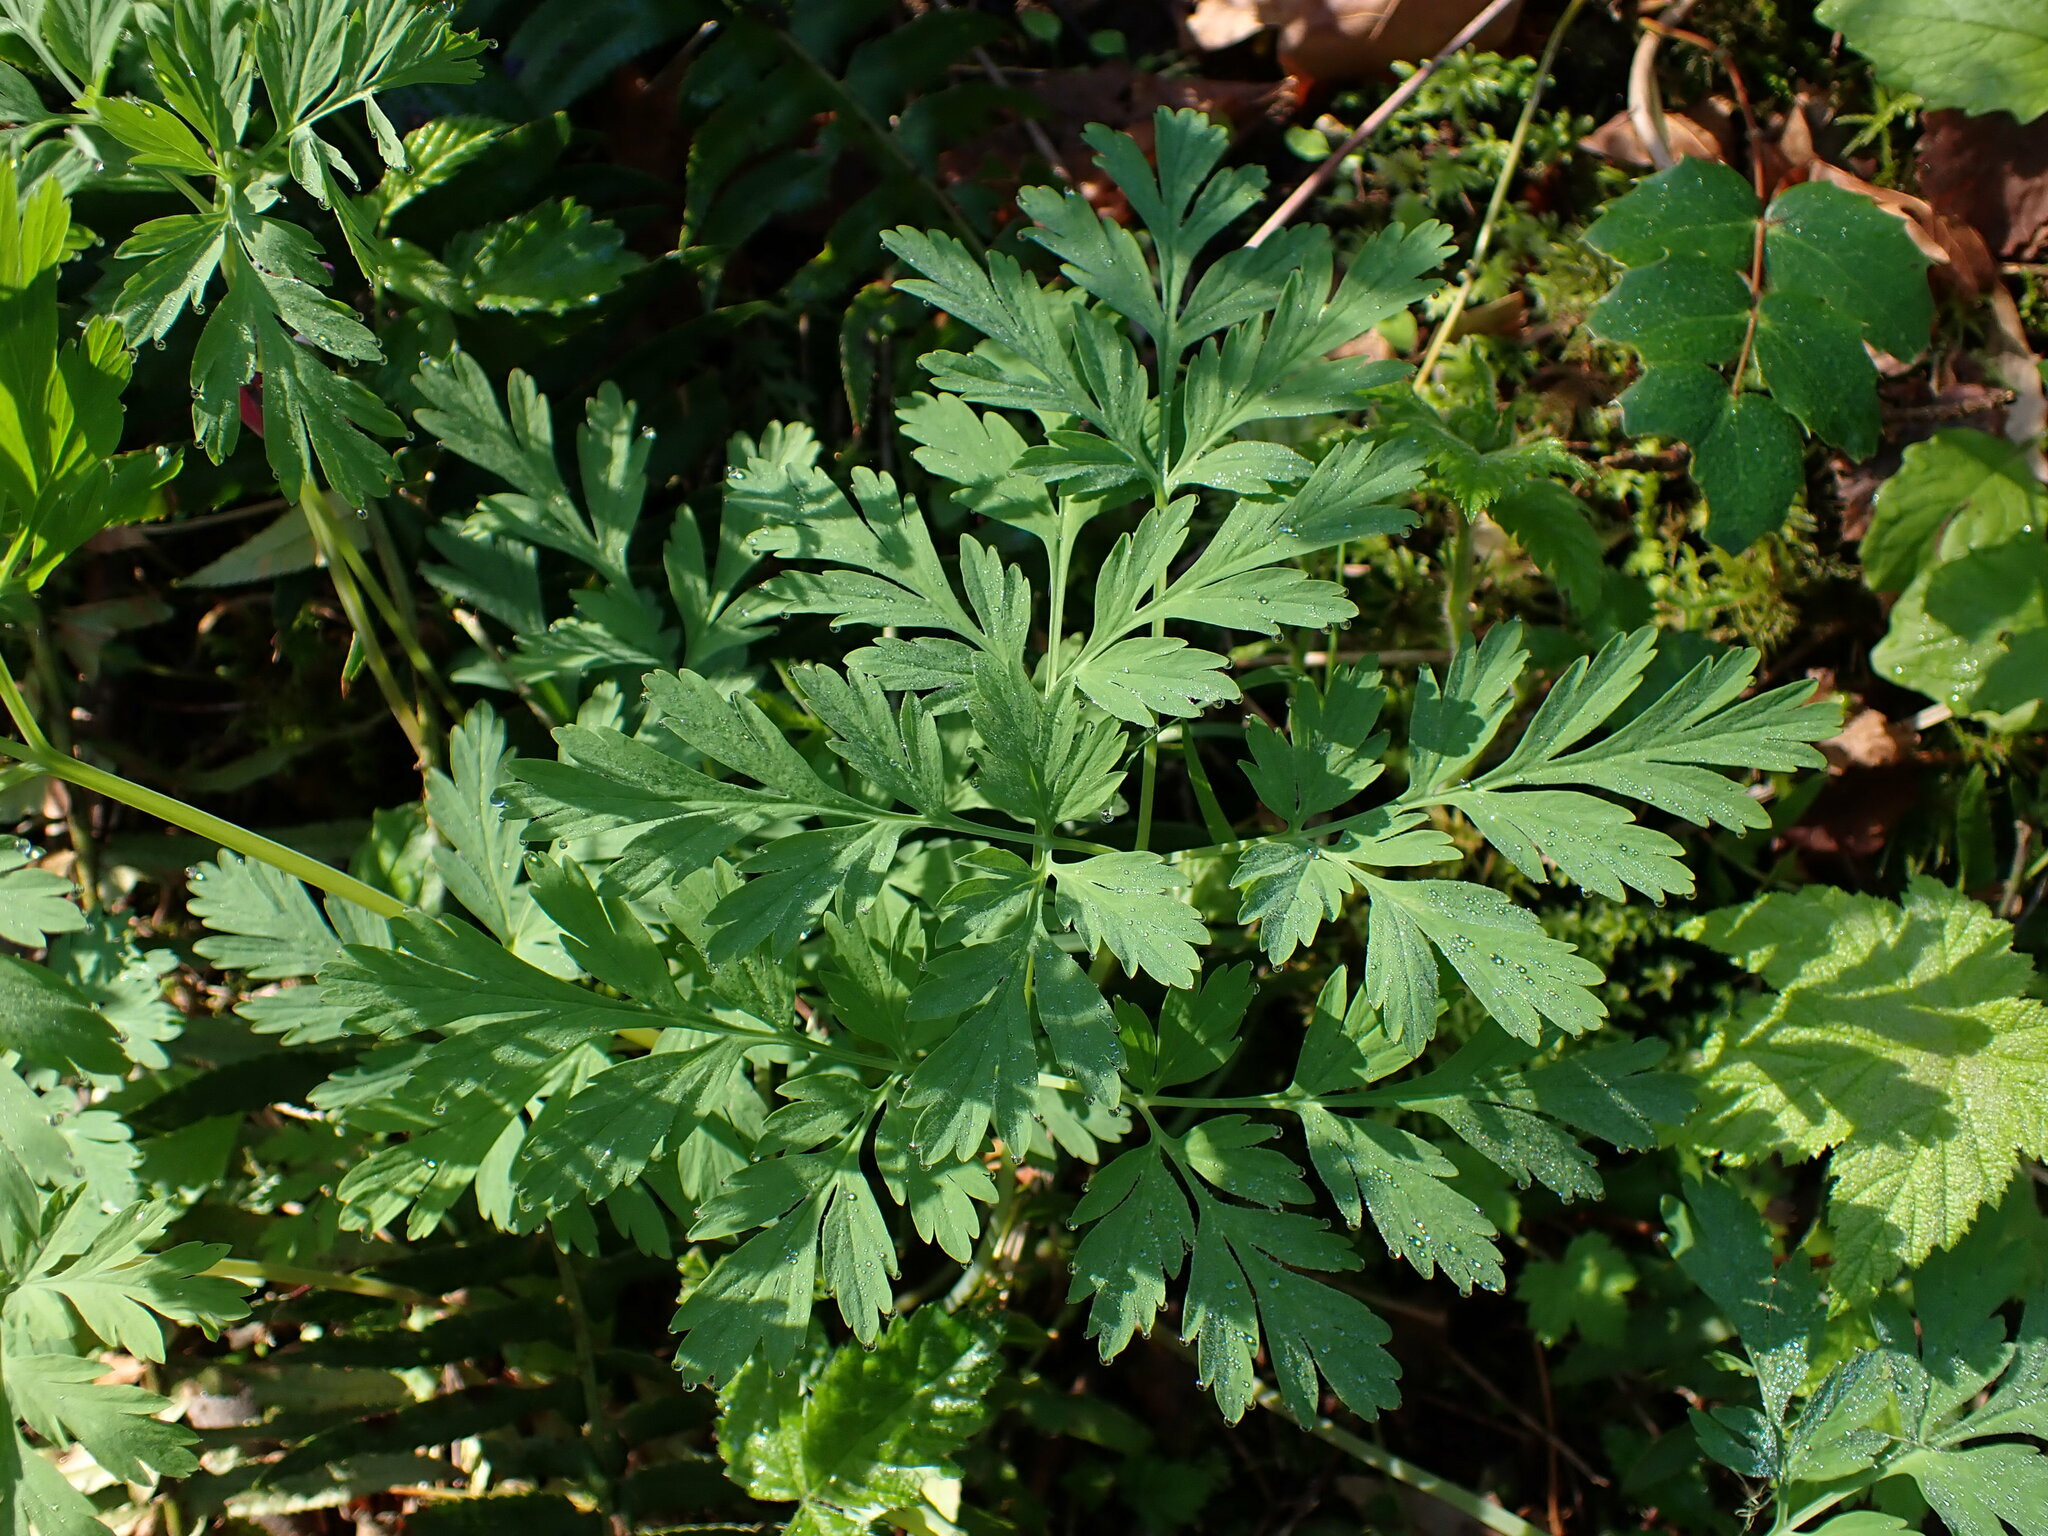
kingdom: Plantae
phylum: Tracheophyta
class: Magnoliopsida
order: Ranunculales
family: Papaveraceae
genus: Dicentra
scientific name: Dicentra formosa
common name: Bleeding-heart
